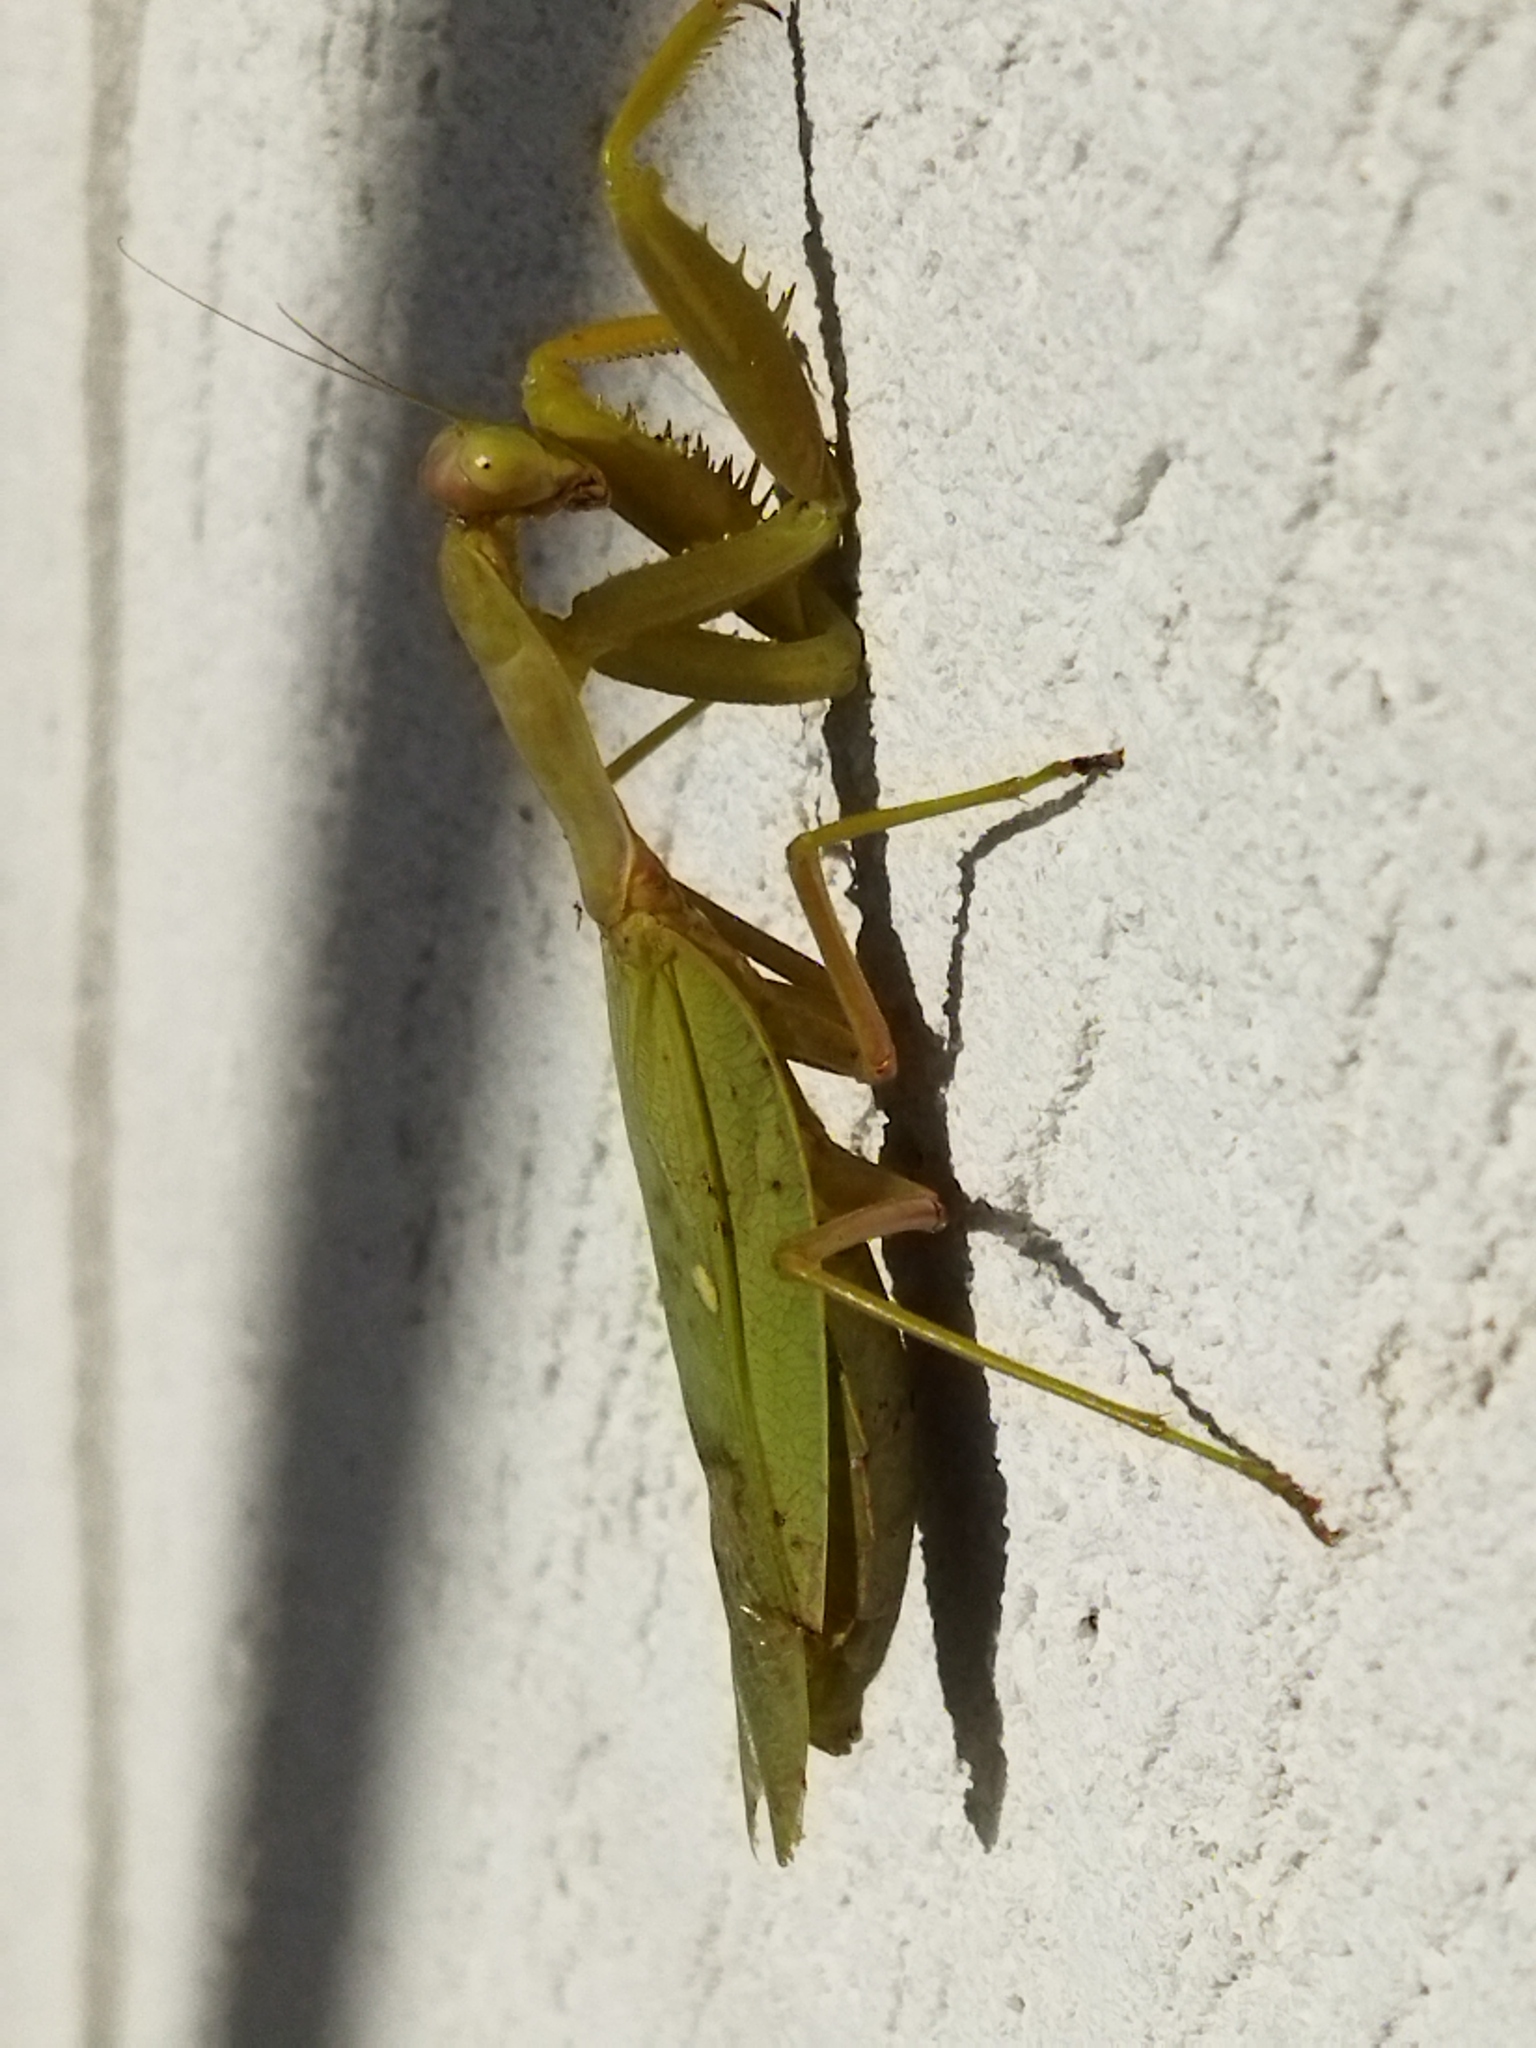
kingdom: Animalia
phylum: Arthropoda
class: Insecta
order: Mantodea
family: Mantidae
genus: Hierodula
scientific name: Hierodula transcaucasica
